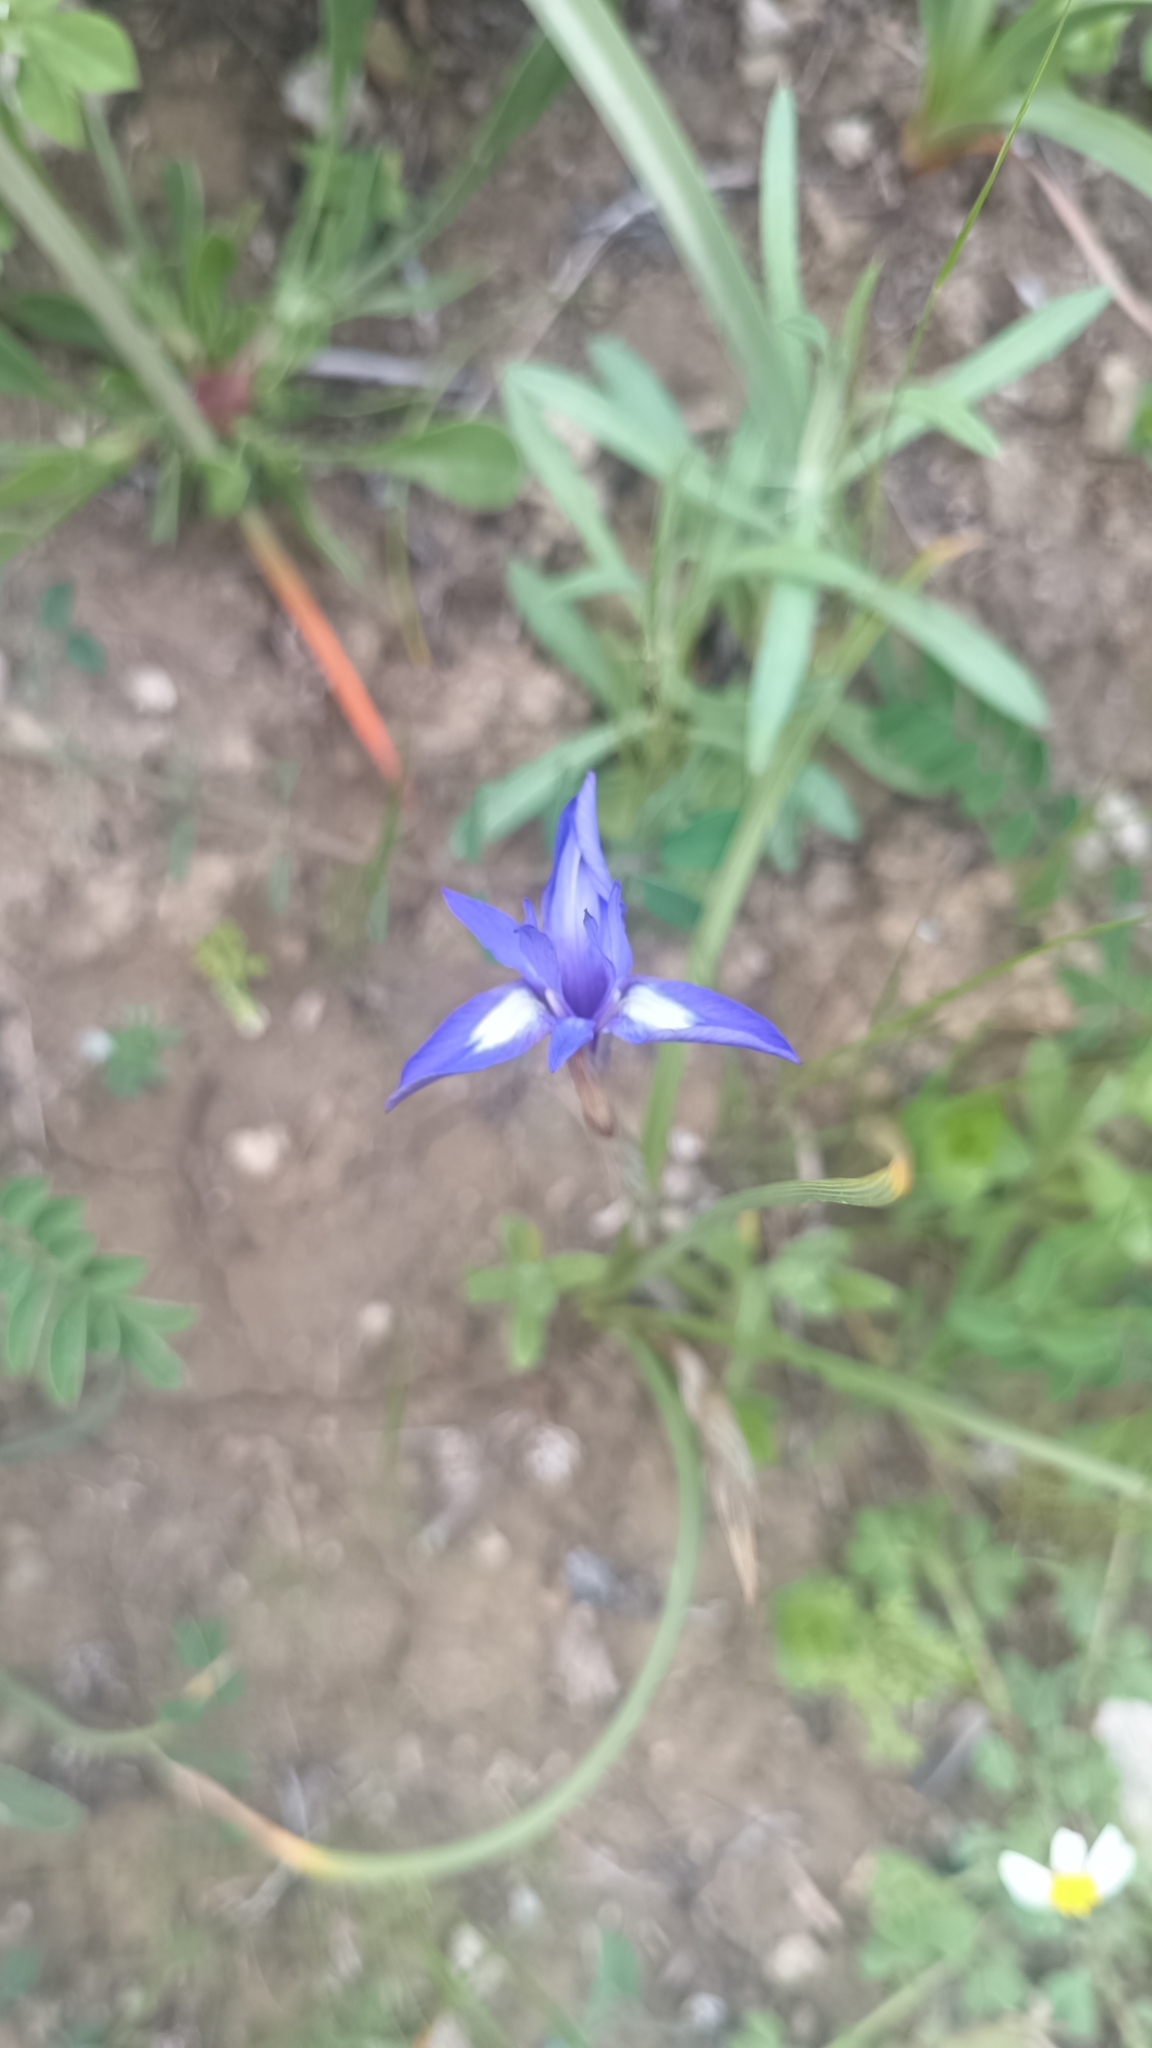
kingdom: Plantae
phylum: Tracheophyta
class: Liliopsida
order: Asparagales
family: Iridaceae
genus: Moraea
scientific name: Moraea sisyrinchium
